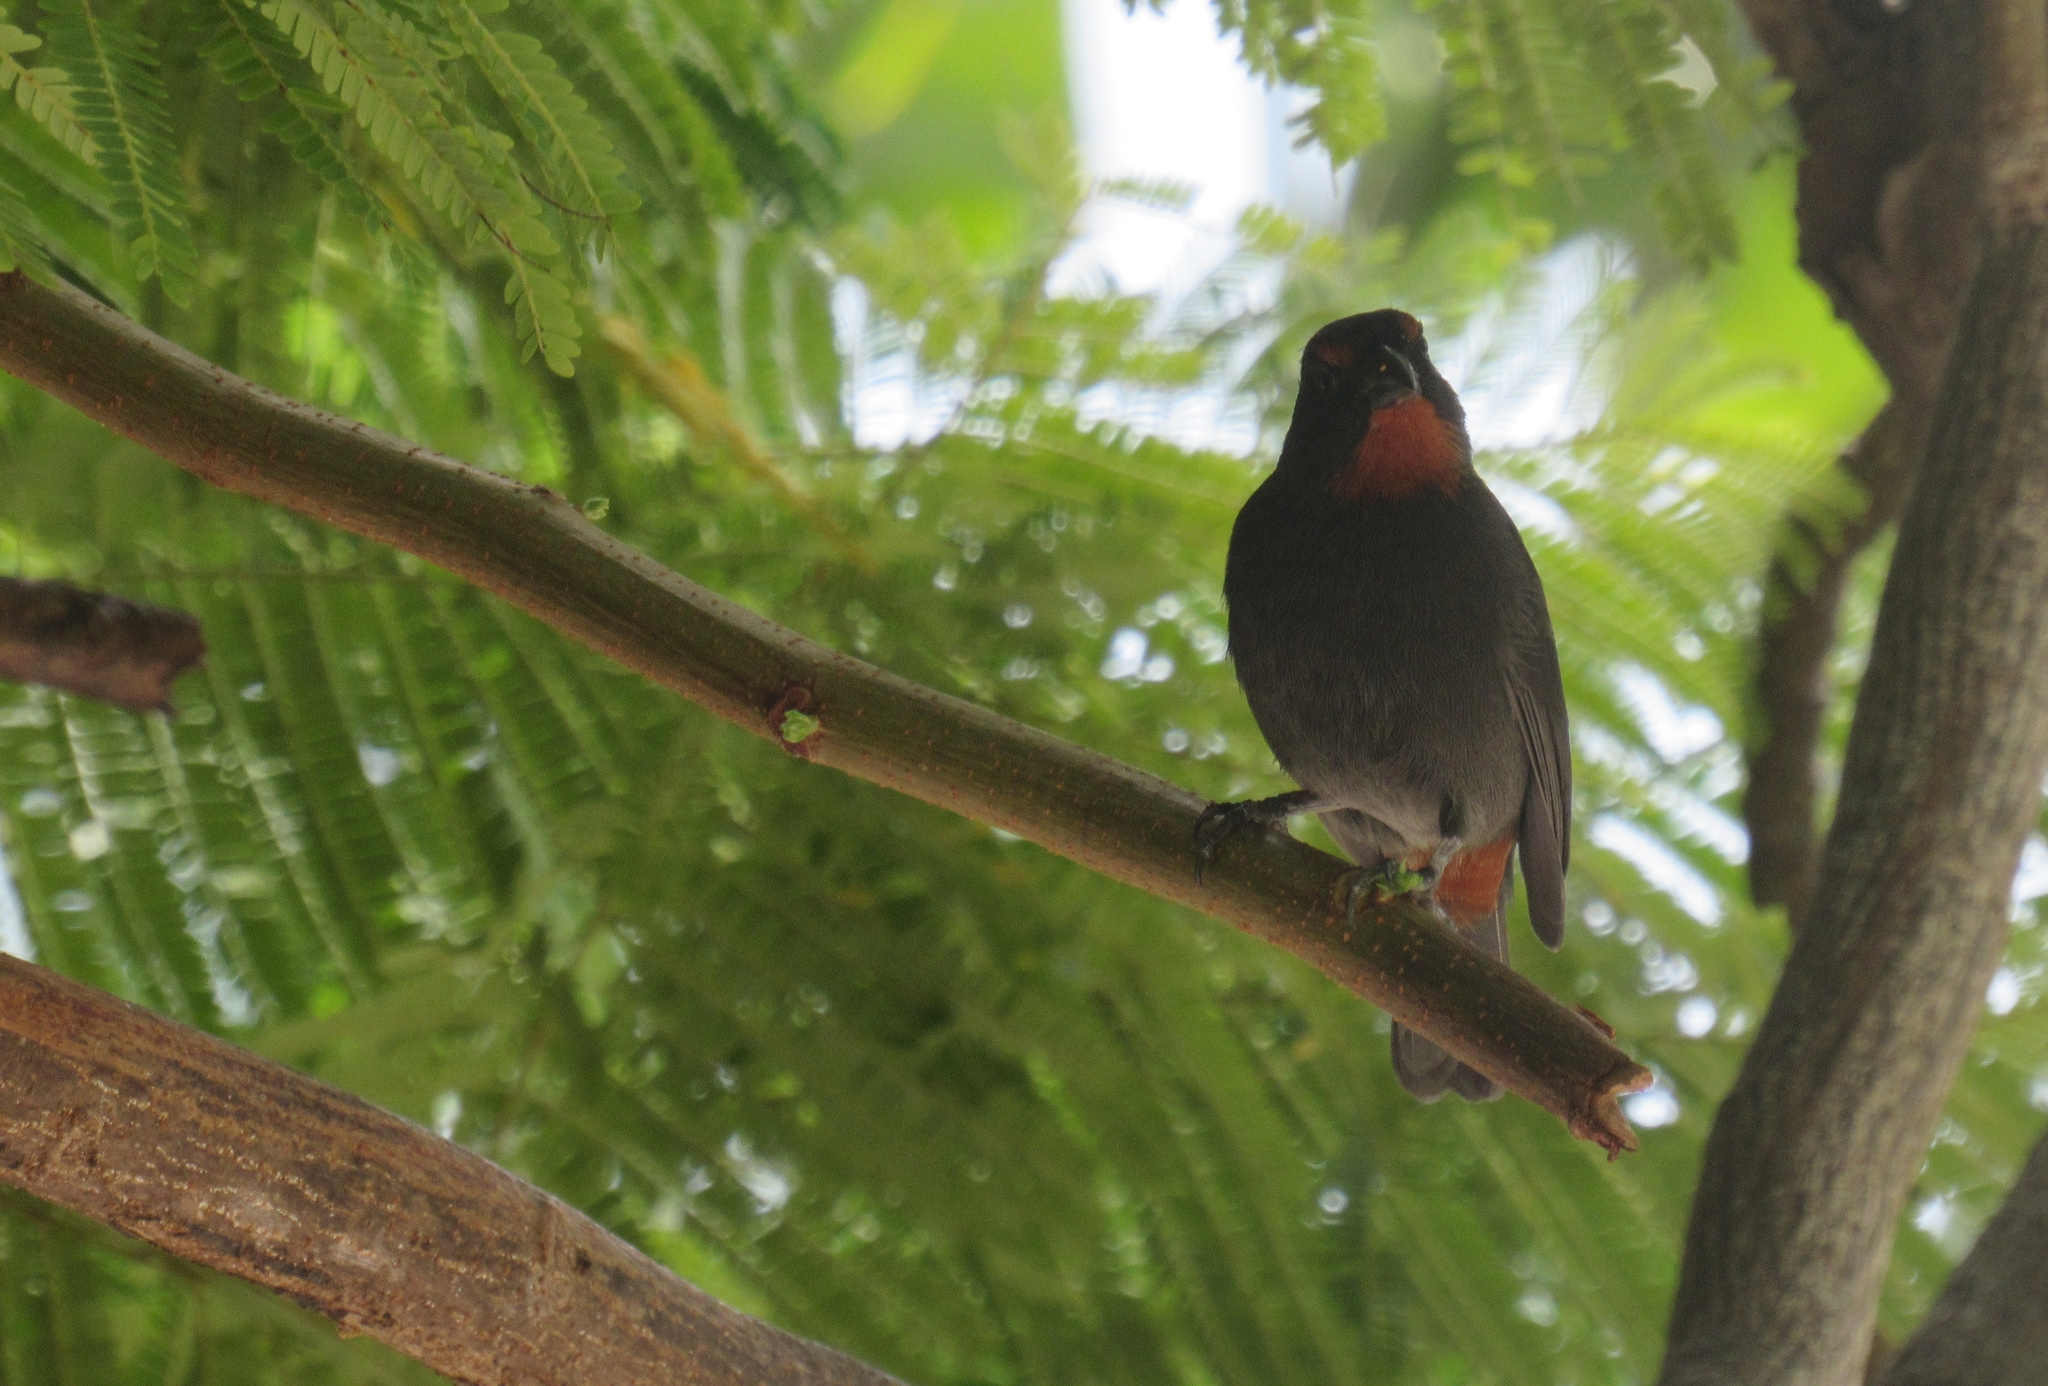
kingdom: Animalia
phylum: Chordata
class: Aves
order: Passeriformes
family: Thraupidae
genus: Loxigilla
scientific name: Loxigilla noctis
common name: Lesser antillean bullfinch
